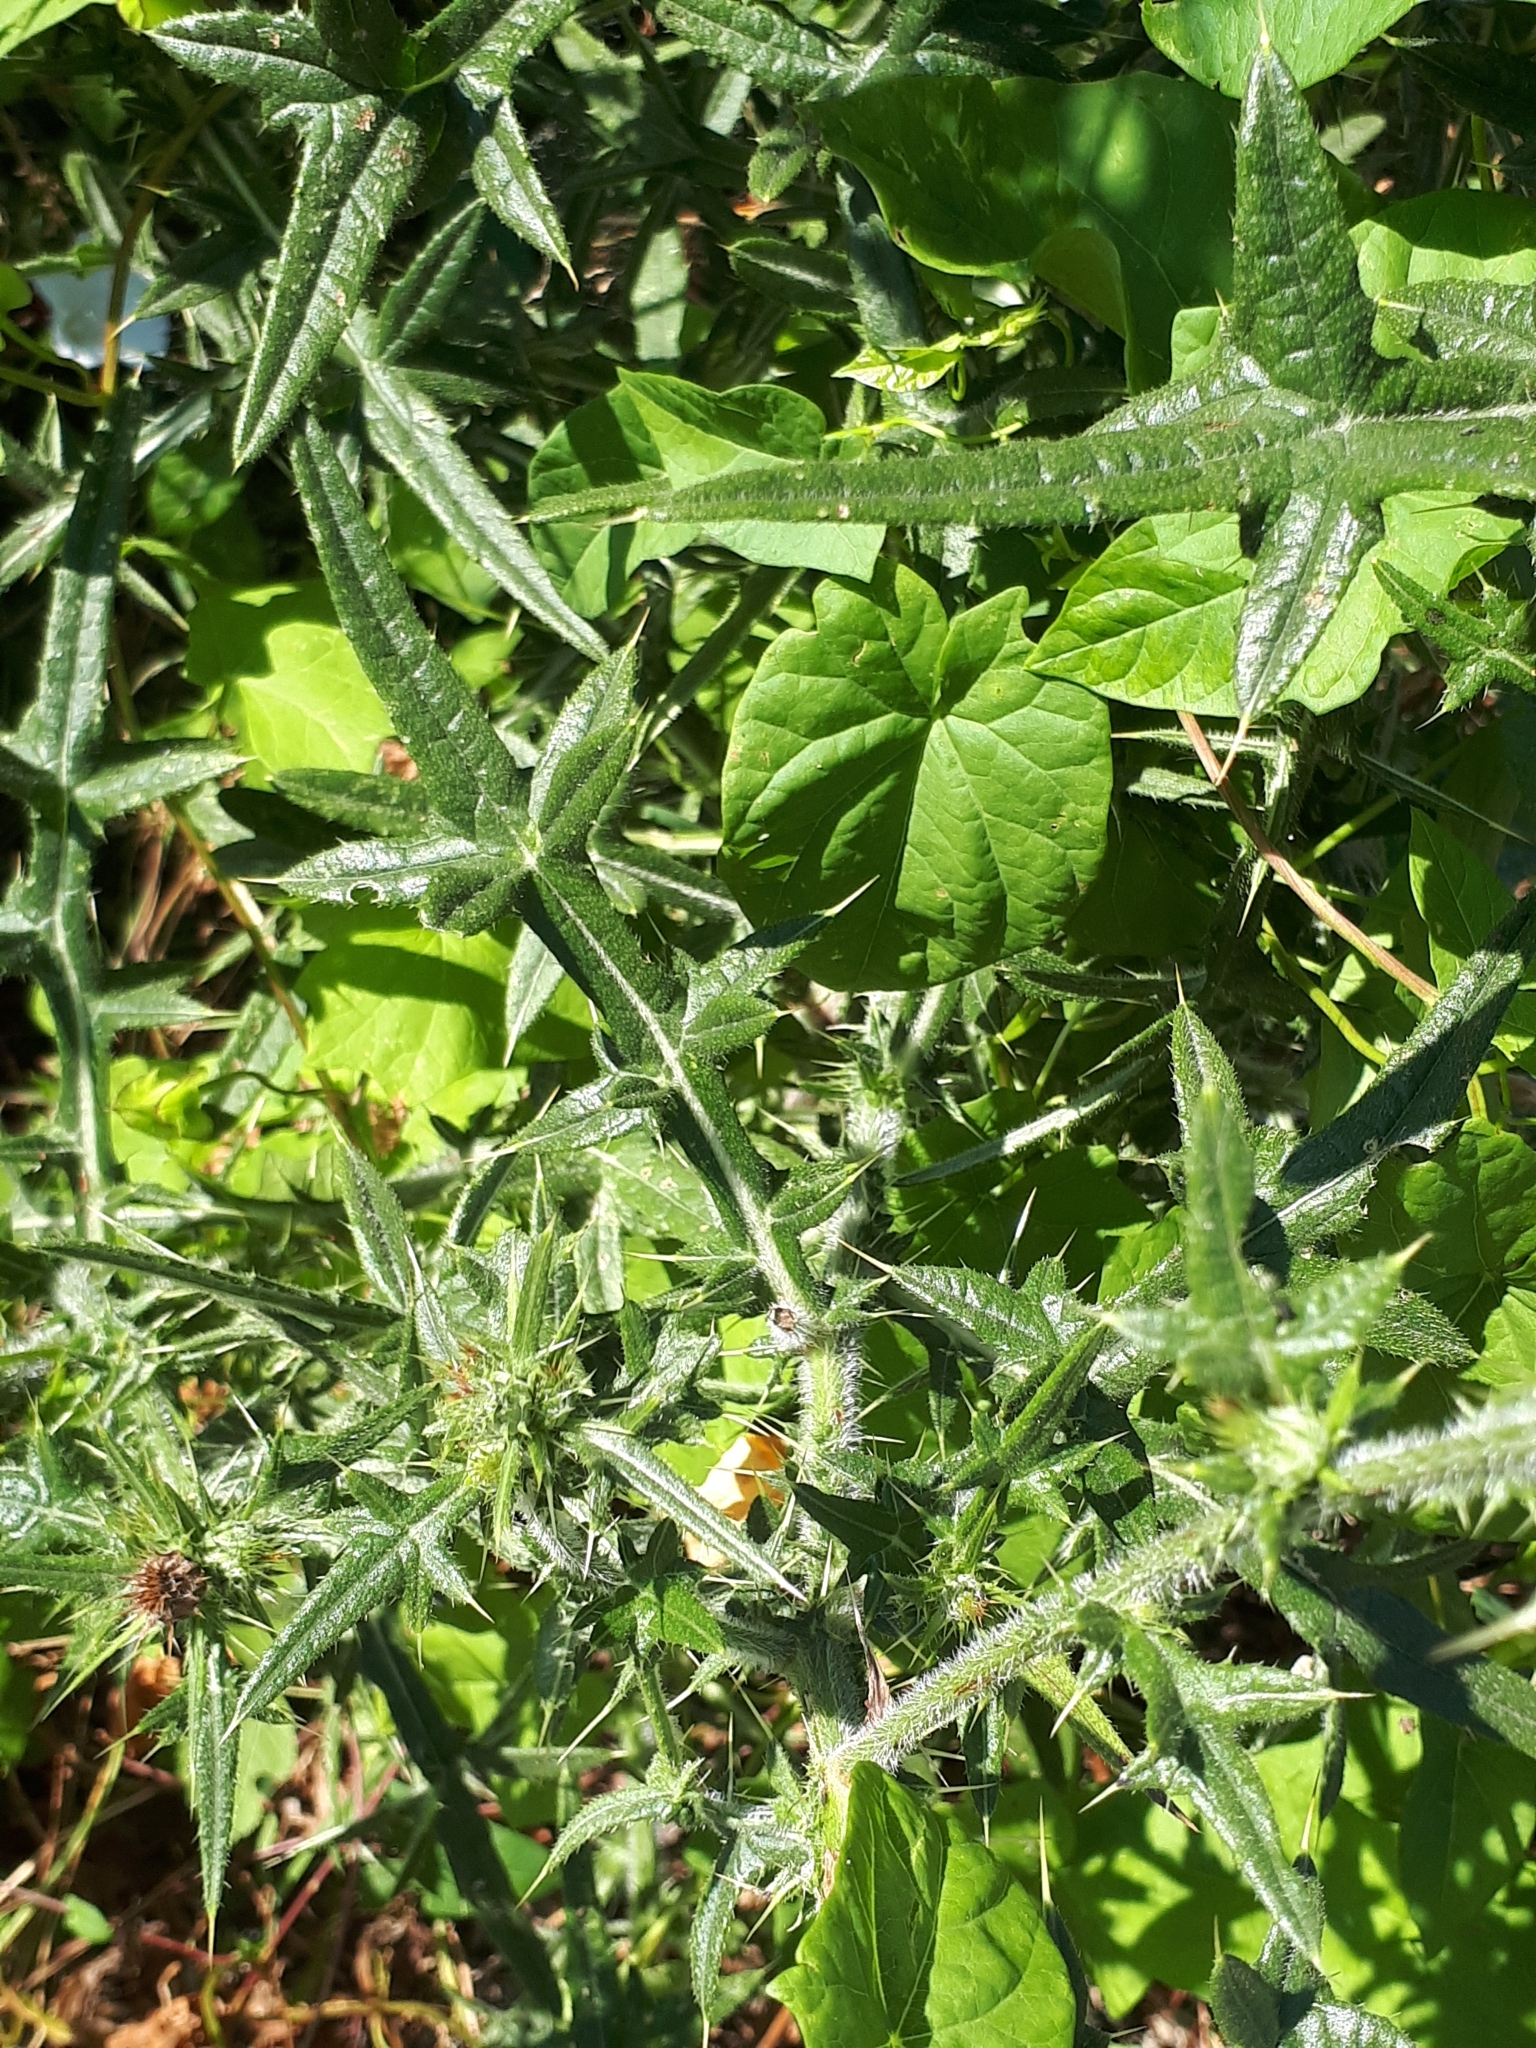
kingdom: Plantae
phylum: Tracheophyta
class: Magnoliopsida
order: Asterales
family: Asteraceae
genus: Cirsium
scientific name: Cirsium vulgare
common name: Bull thistle
